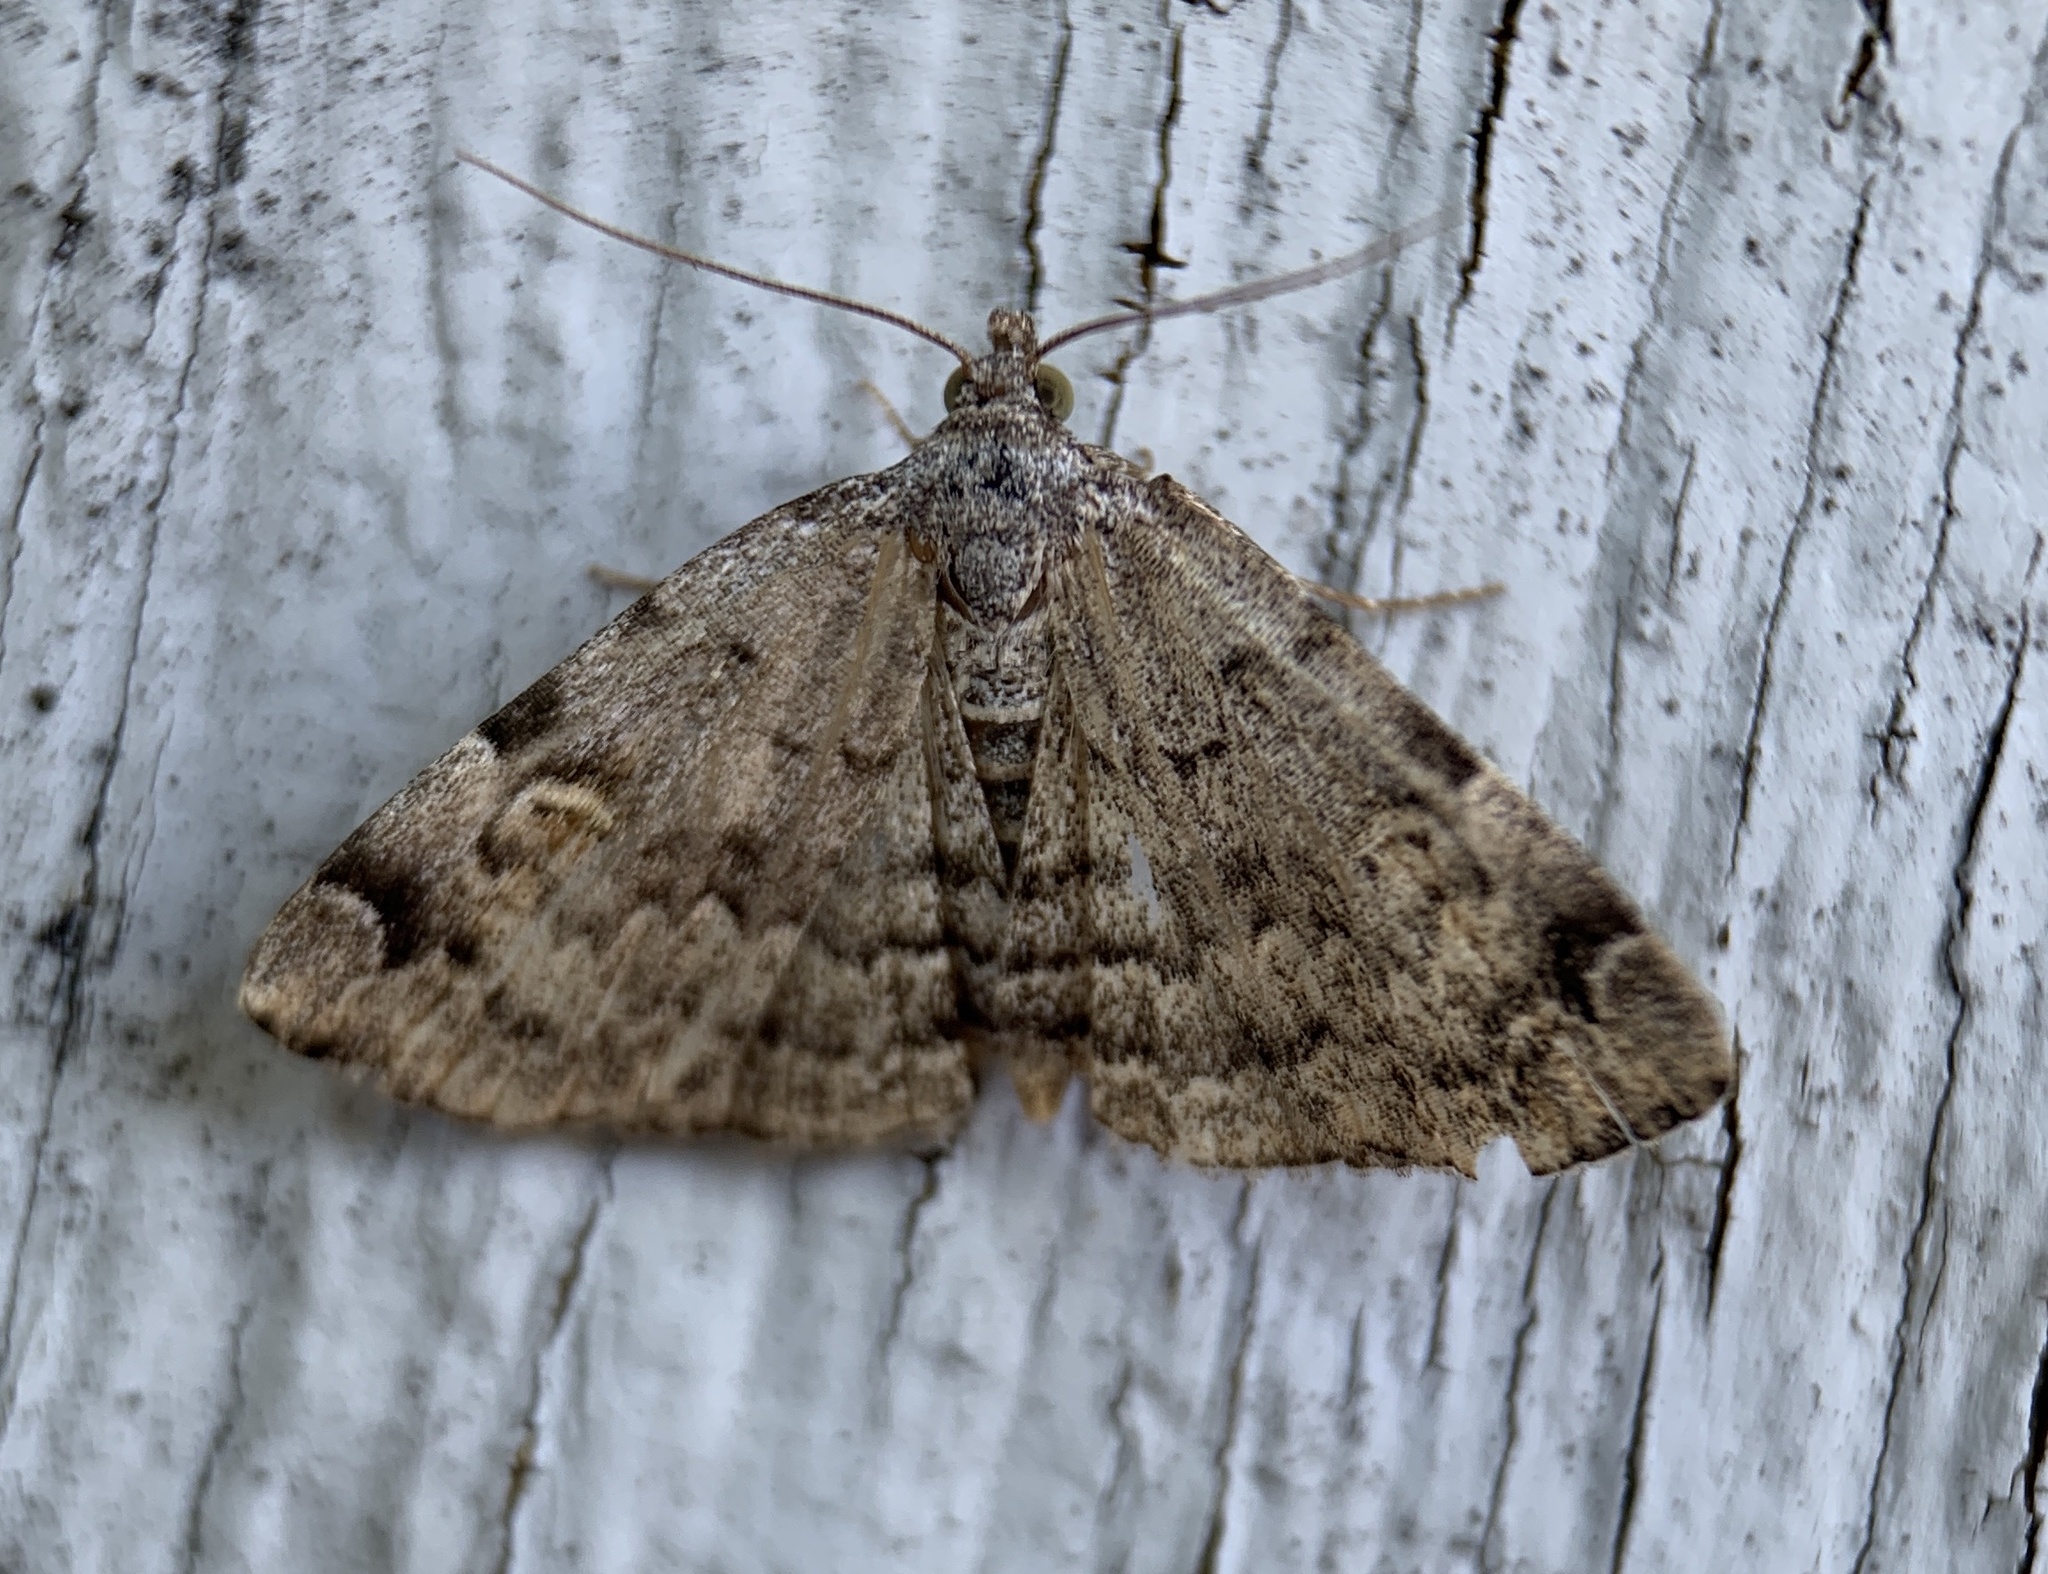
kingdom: Animalia
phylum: Arthropoda
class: Insecta
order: Lepidoptera
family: Erebidae
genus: Idia
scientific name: Idia americalis
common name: American idia moth
